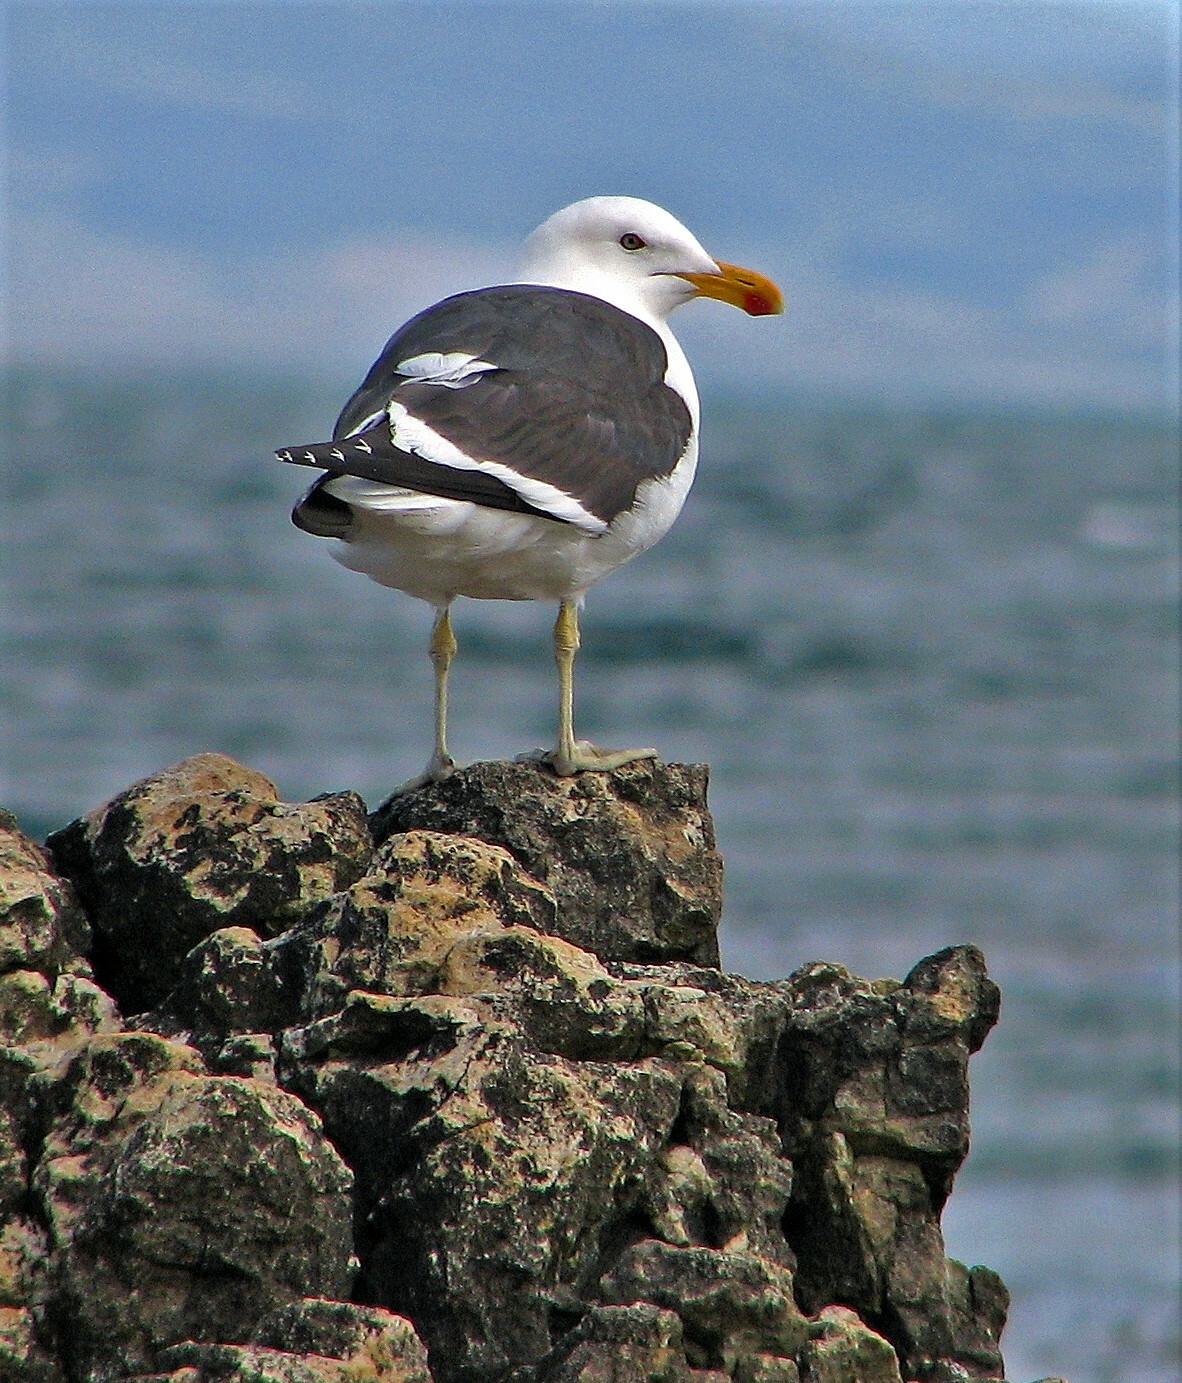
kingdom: Animalia
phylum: Chordata
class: Aves
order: Charadriiformes
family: Laridae
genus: Larus
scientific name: Larus dominicanus
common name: Kelp gull
